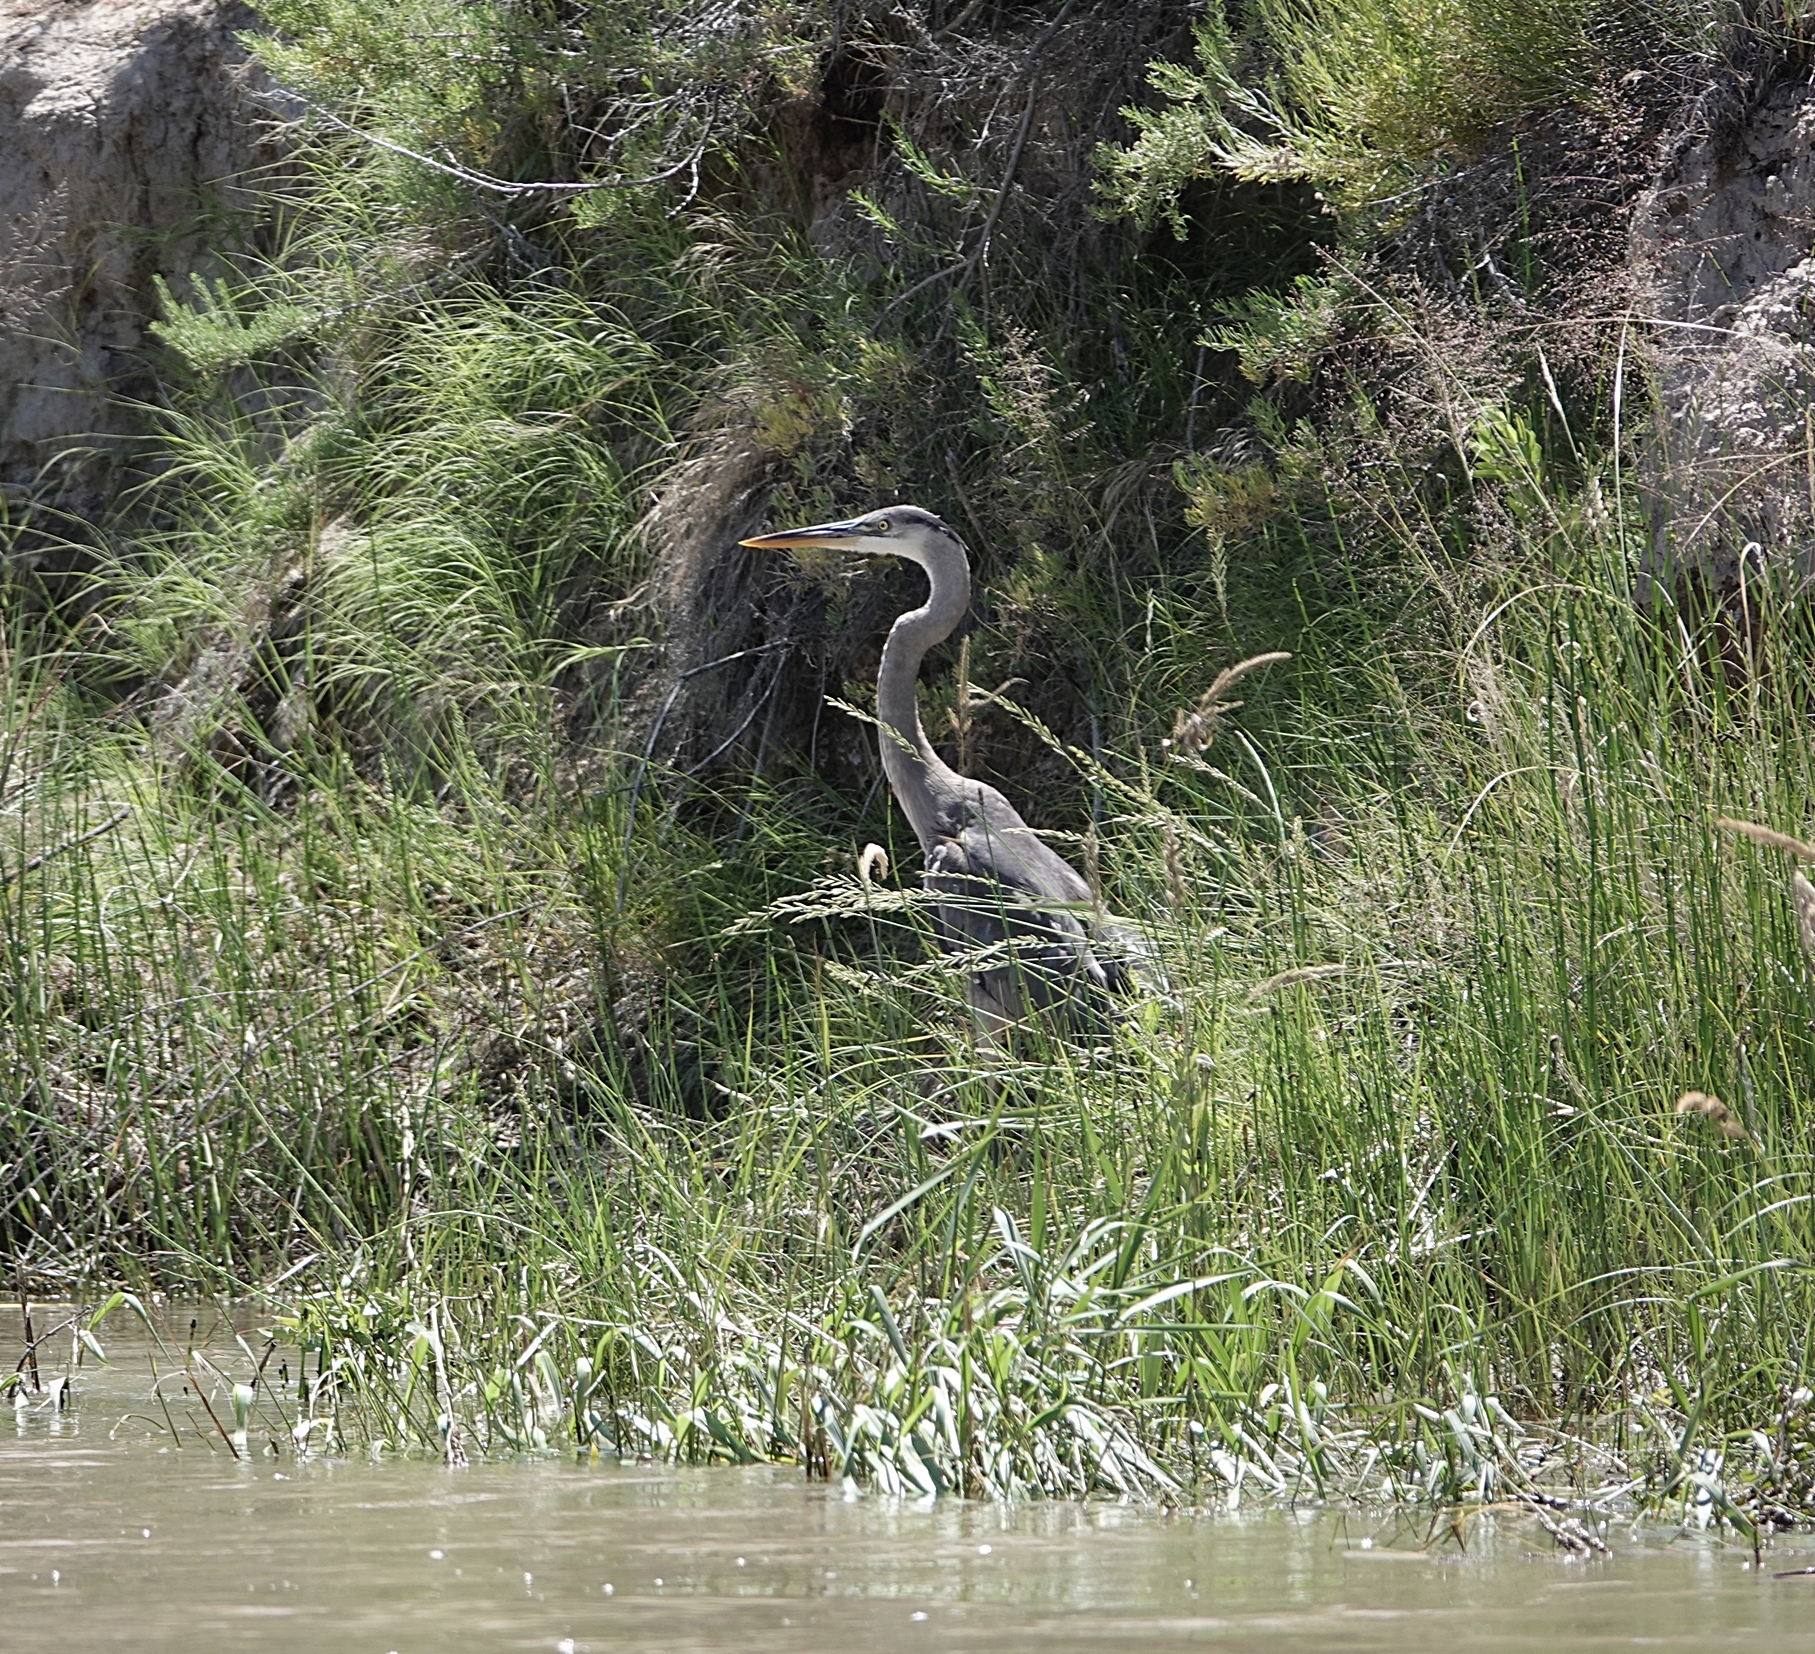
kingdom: Animalia
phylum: Chordata
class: Aves
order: Pelecaniformes
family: Ardeidae
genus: Ardea
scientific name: Ardea herodias
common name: Great blue heron
